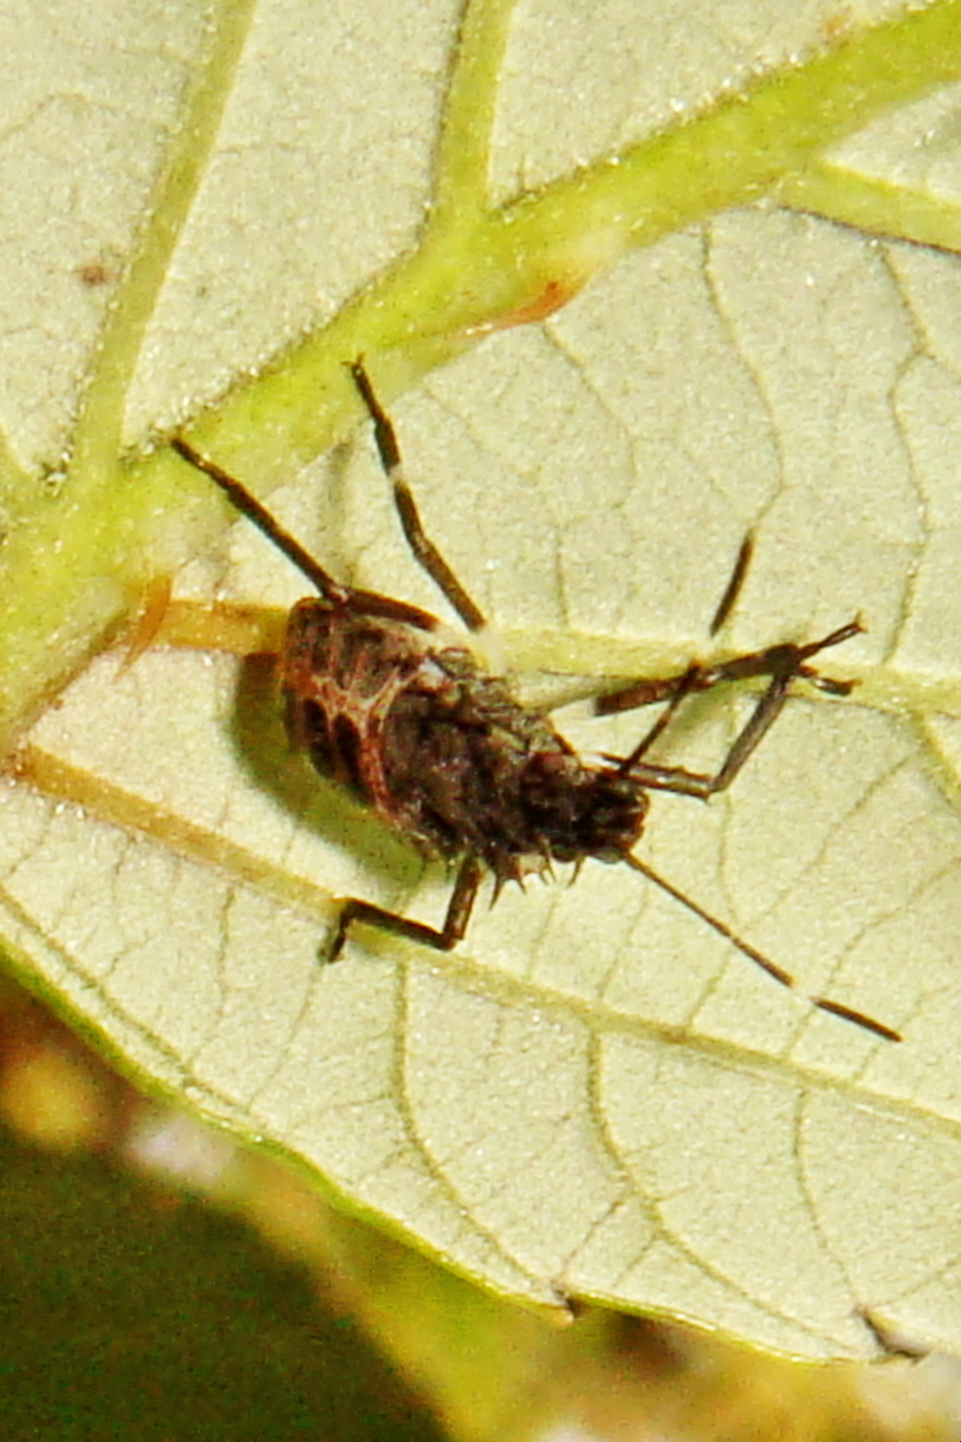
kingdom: Animalia
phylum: Arthropoda
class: Insecta
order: Hemiptera
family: Pentatomidae
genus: Halyomorpha
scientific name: Halyomorpha halys
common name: Brown marmorated stink bug
